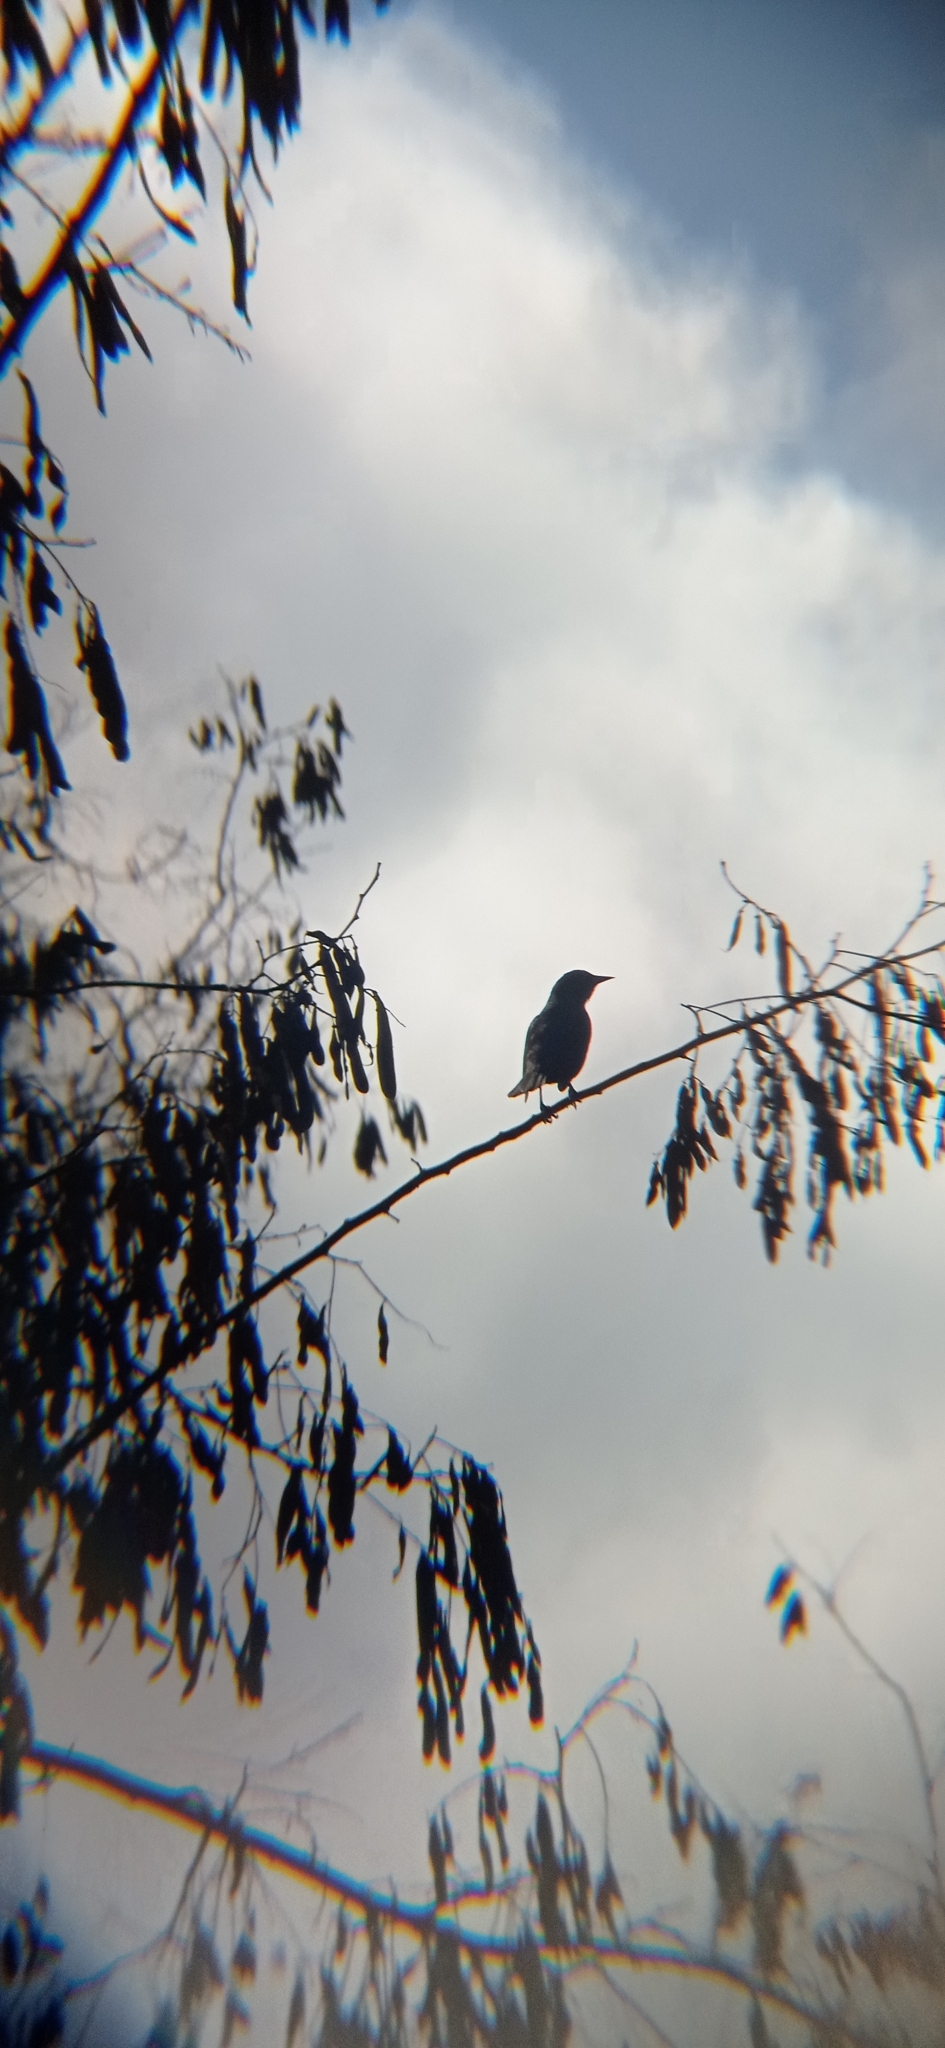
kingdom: Animalia
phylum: Chordata
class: Aves
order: Passeriformes
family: Icteridae
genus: Agelasticus
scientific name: Agelasticus thilius
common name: Yellow-winged blackbird
